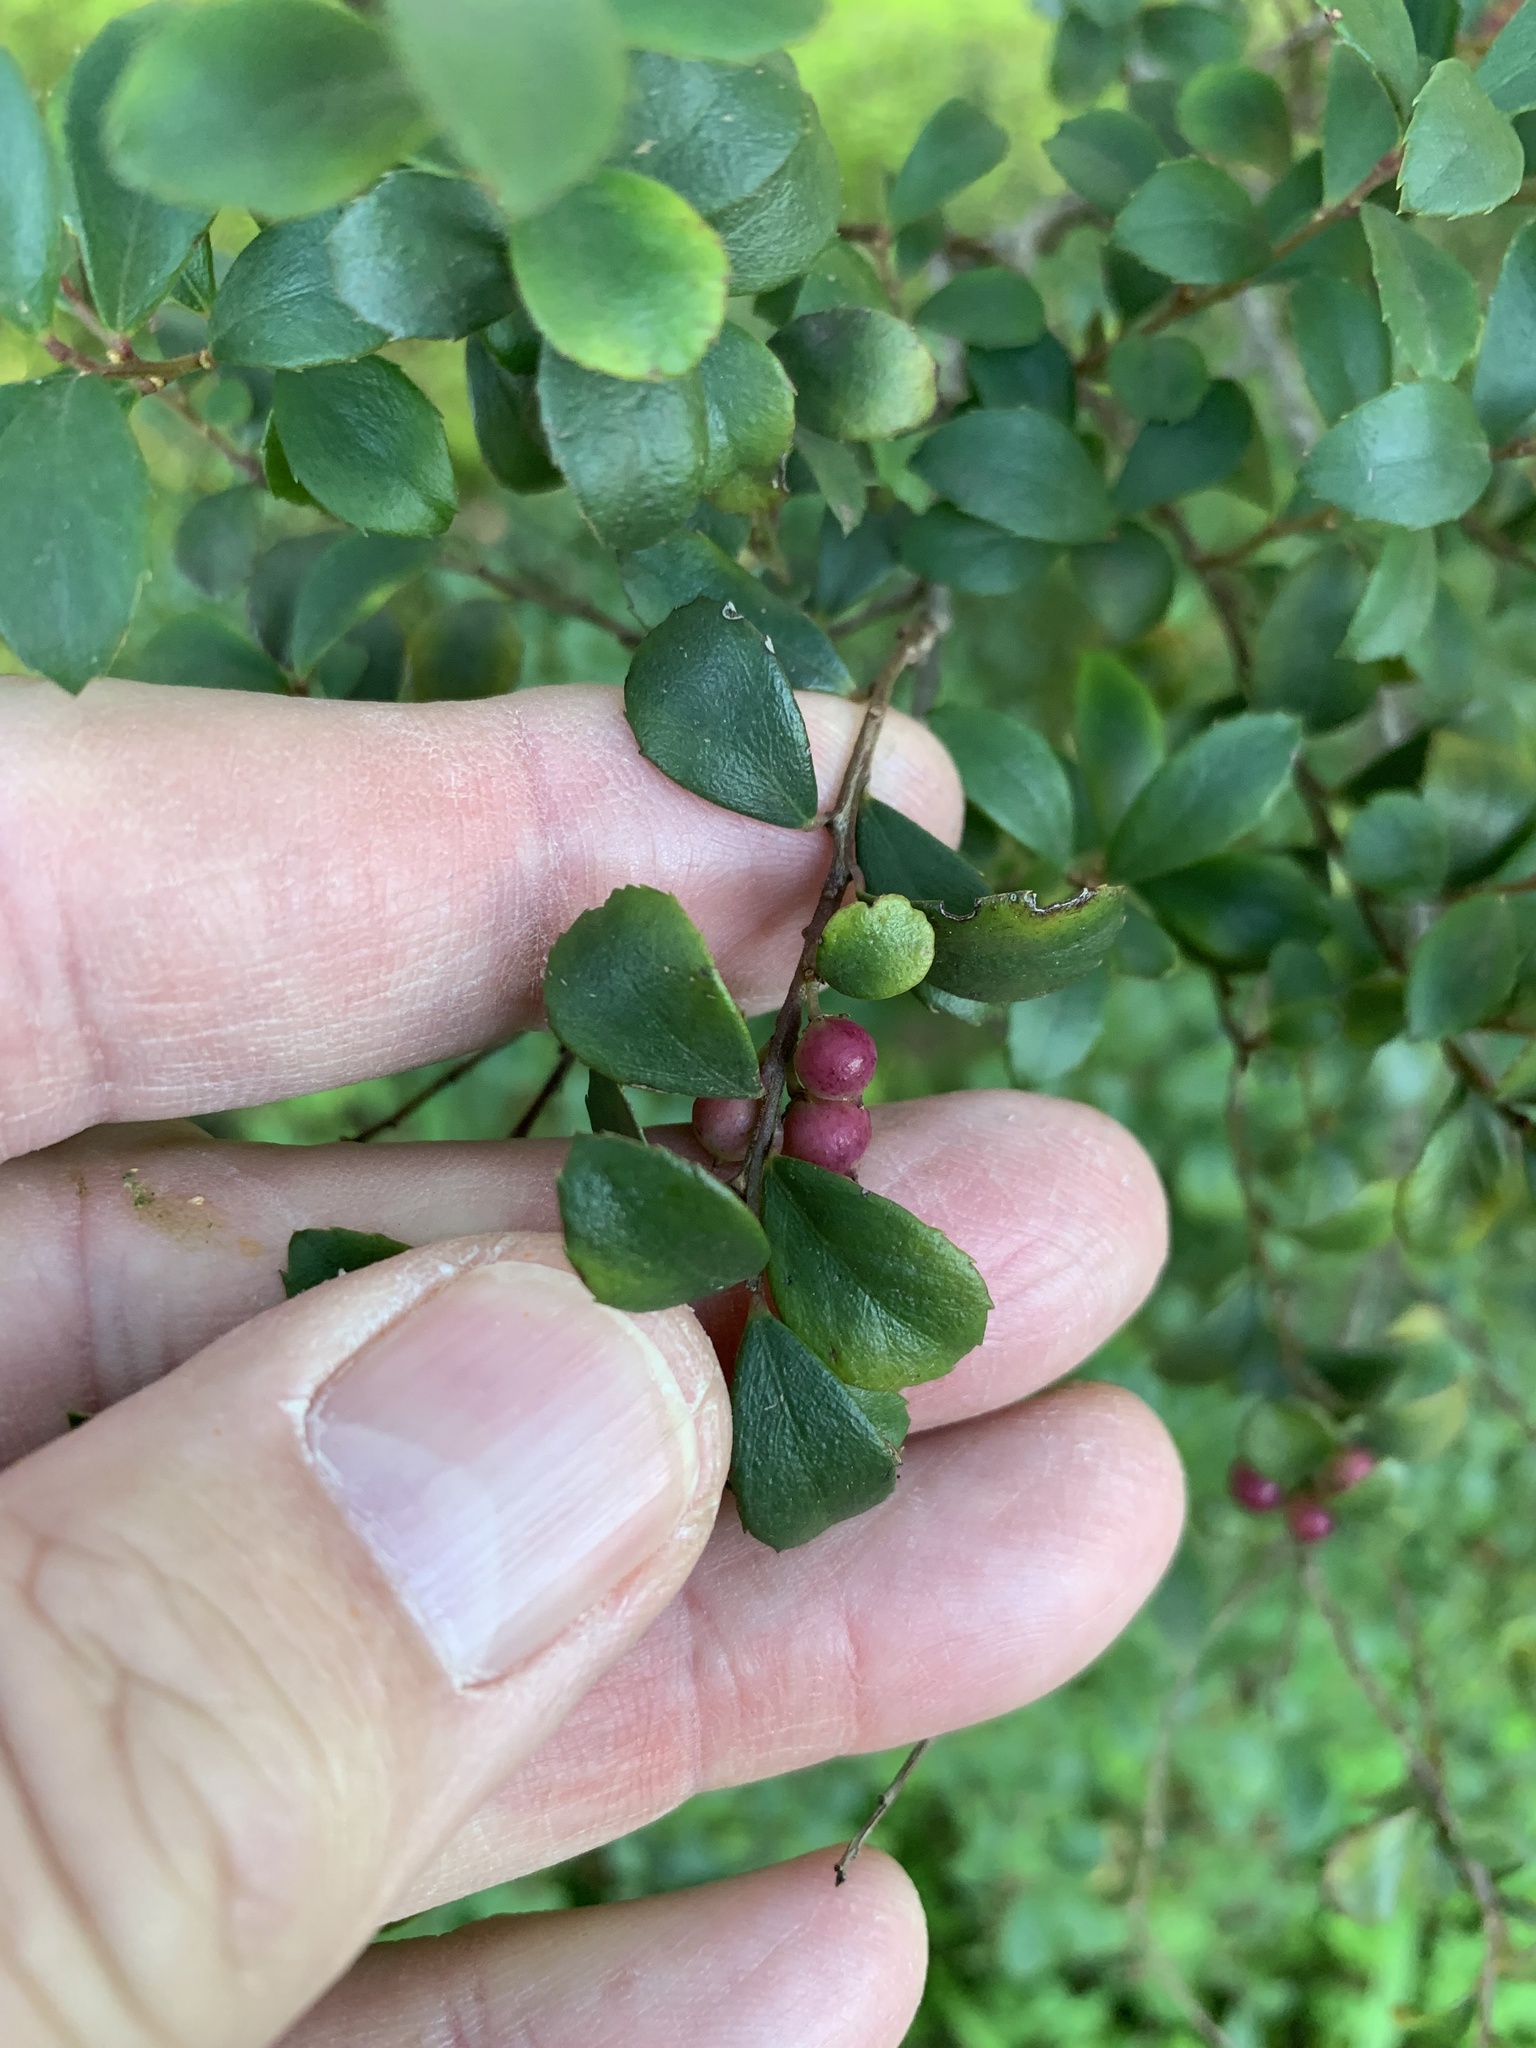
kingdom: Plantae
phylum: Tracheophyta
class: Magnoliopsida
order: Ericales
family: Primulaceae
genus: Myrsine
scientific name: Myrsine africana
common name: African-boxwood
